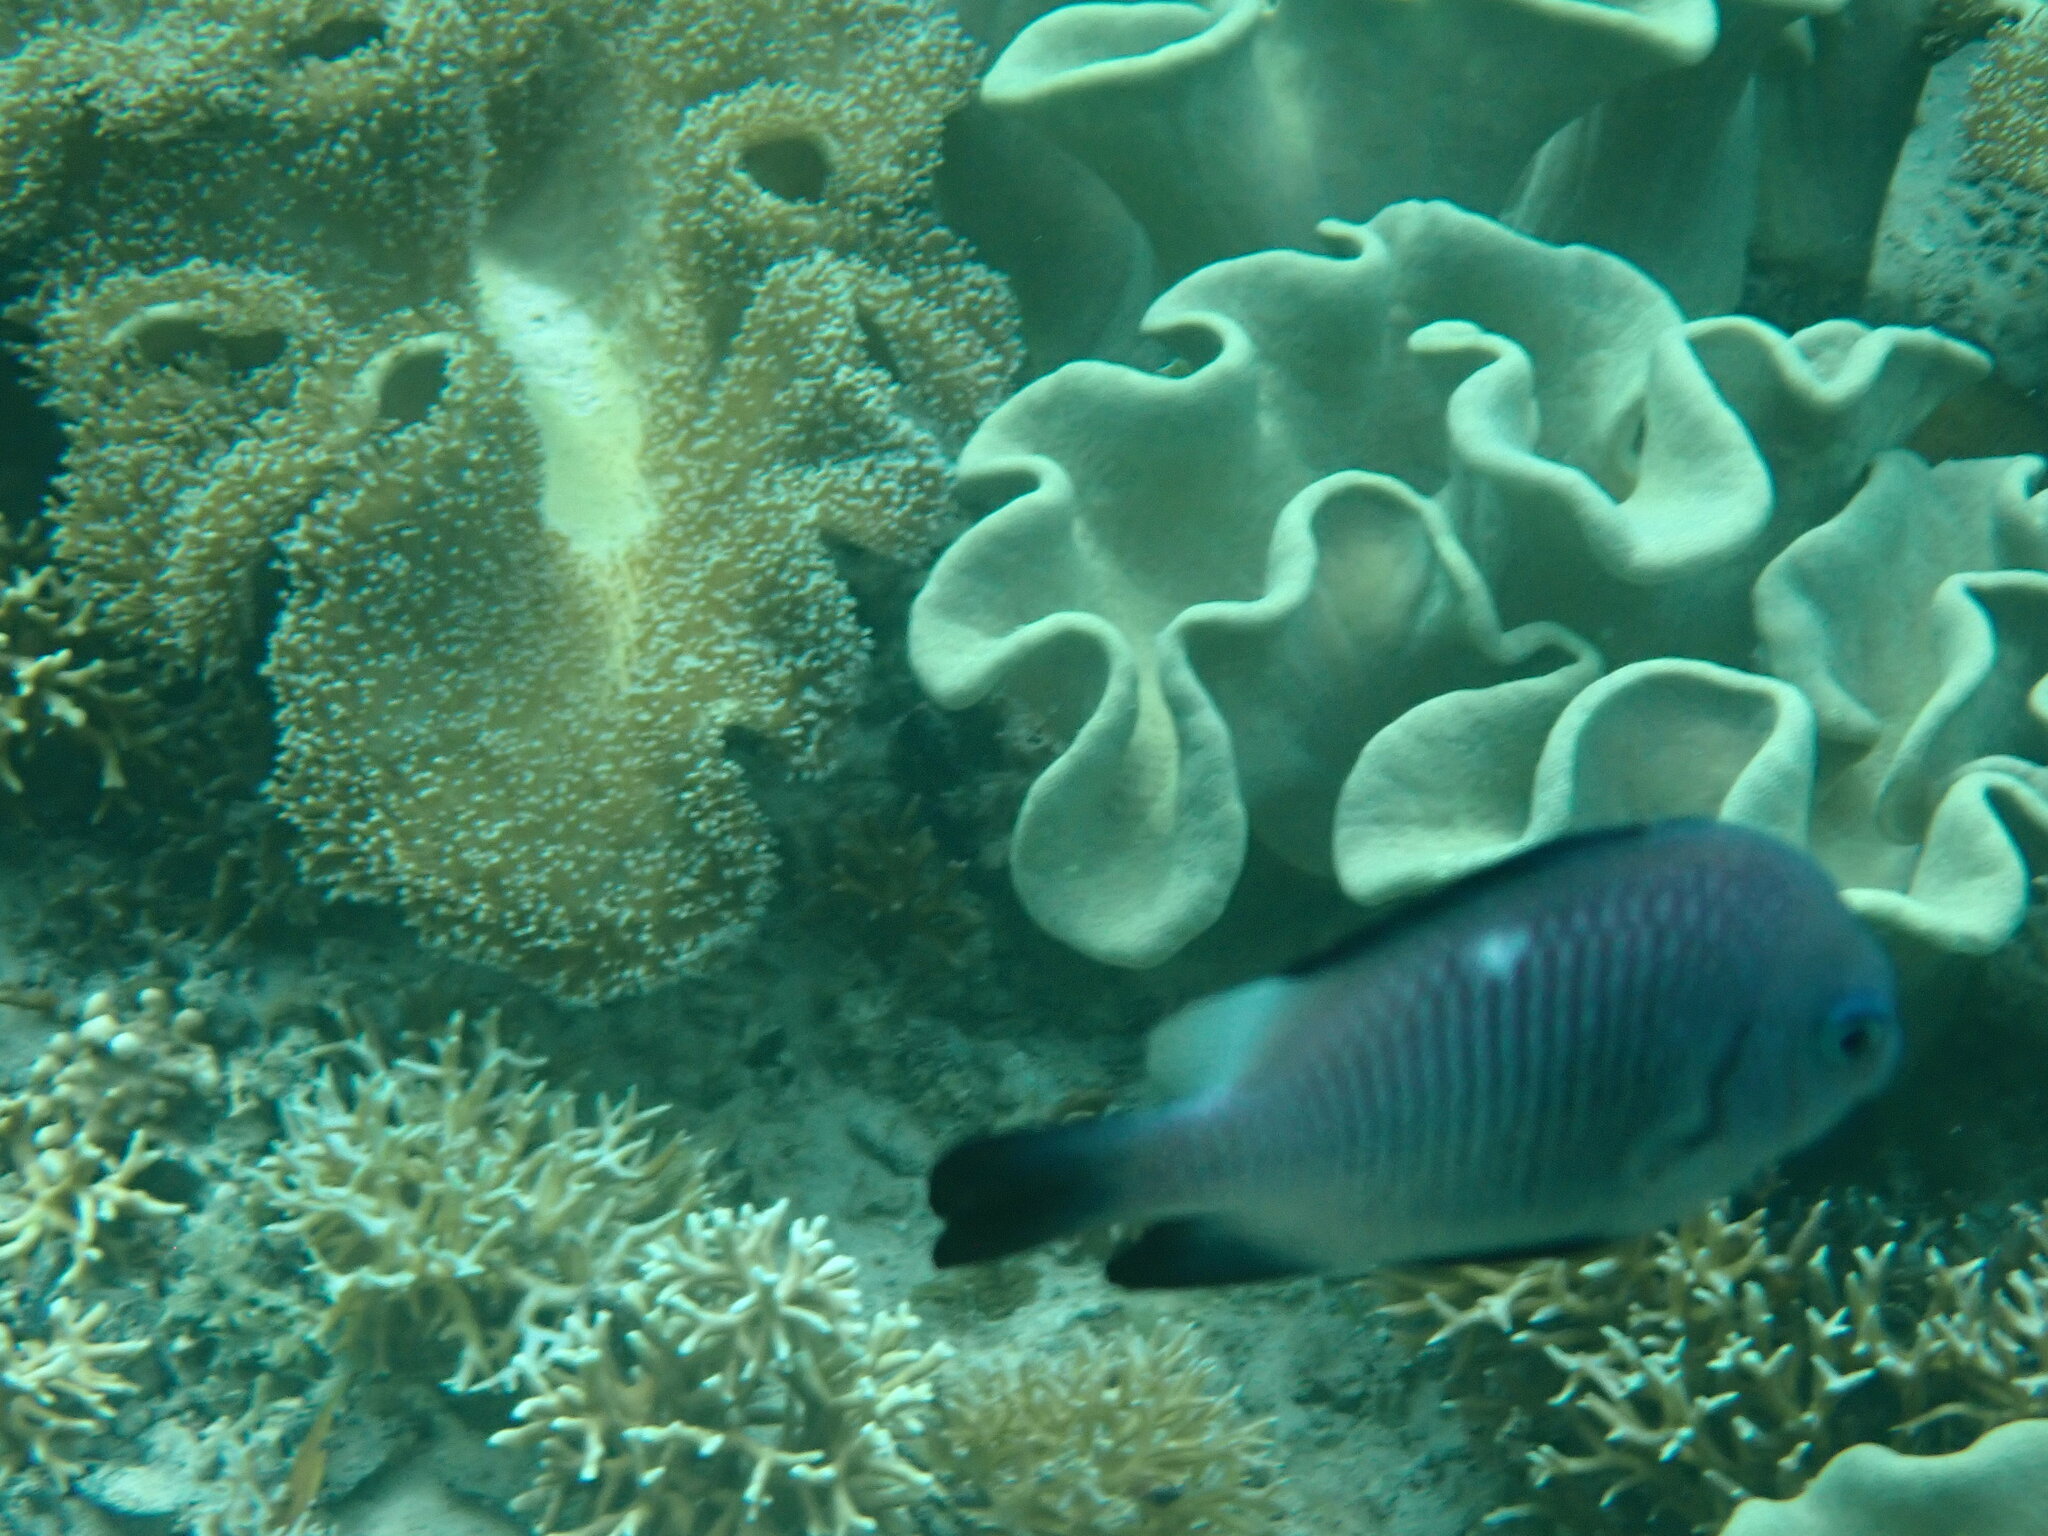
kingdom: Animalia
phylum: Chordata
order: Perciformes
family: Pomacentridae
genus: Dascyllus
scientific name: Dascyllus trimaculatus
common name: Threespot dascyllus
